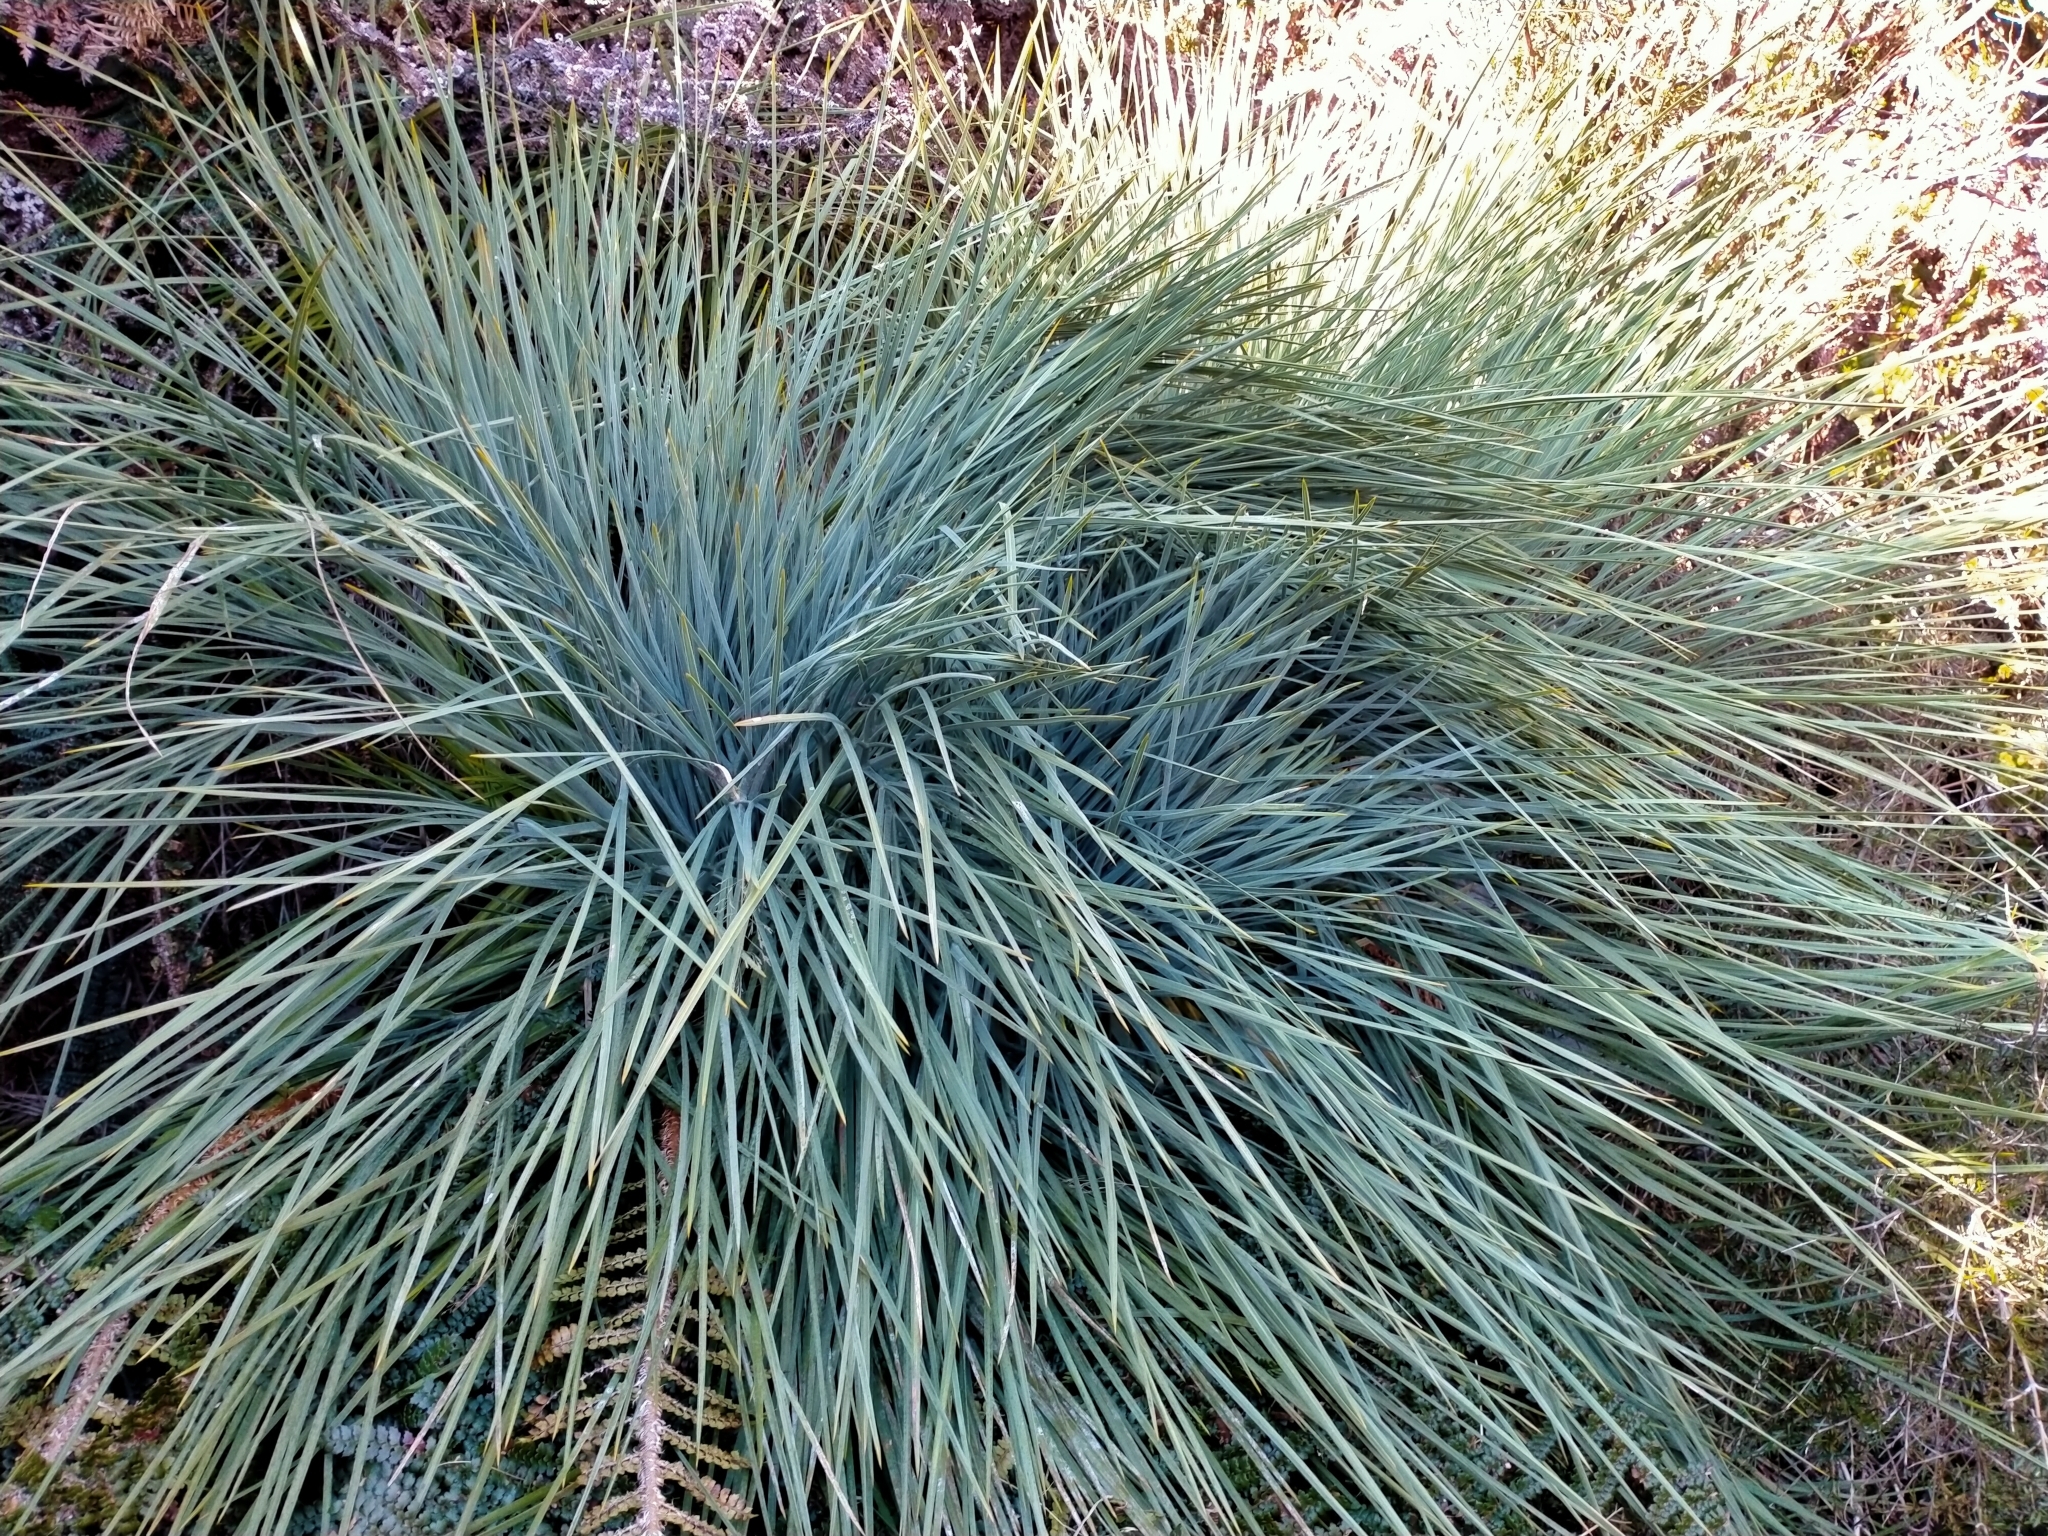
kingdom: Plantae
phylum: Tracheophyta
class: Magnoliopsida
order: Apiales
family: Apiaceae
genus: Aciphylla
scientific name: Aciphylla glaucescens
